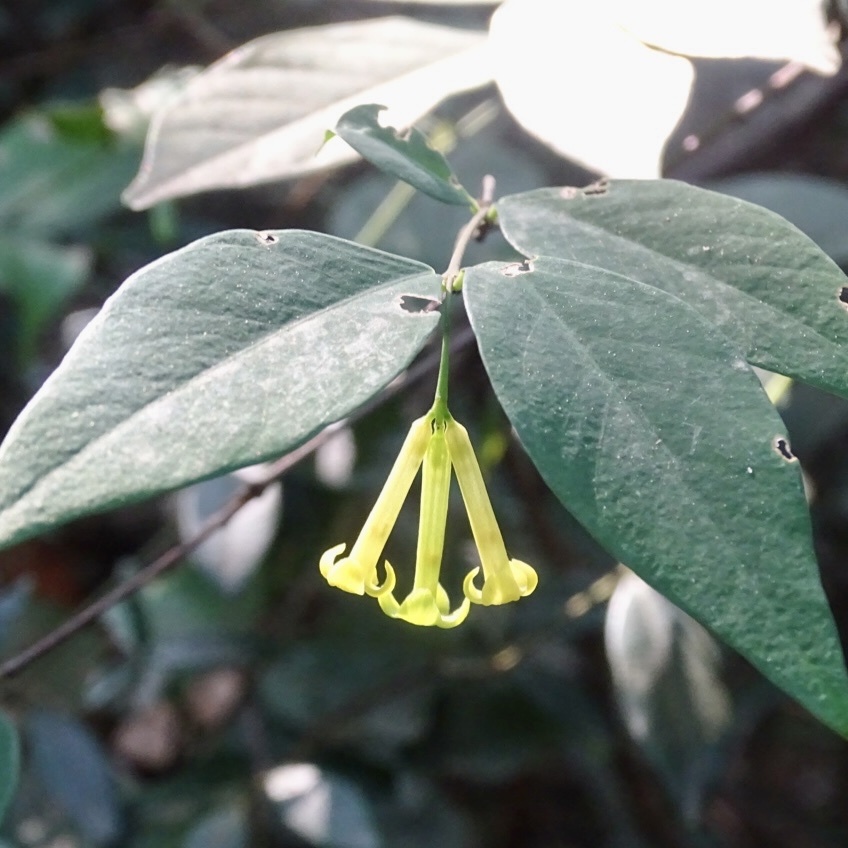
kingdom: Plantae
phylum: Tracheophyta
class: Magnoliopsida
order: Malvales
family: Thymelaeaceae
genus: Wikstroemia
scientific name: Wikstroemia nutans
